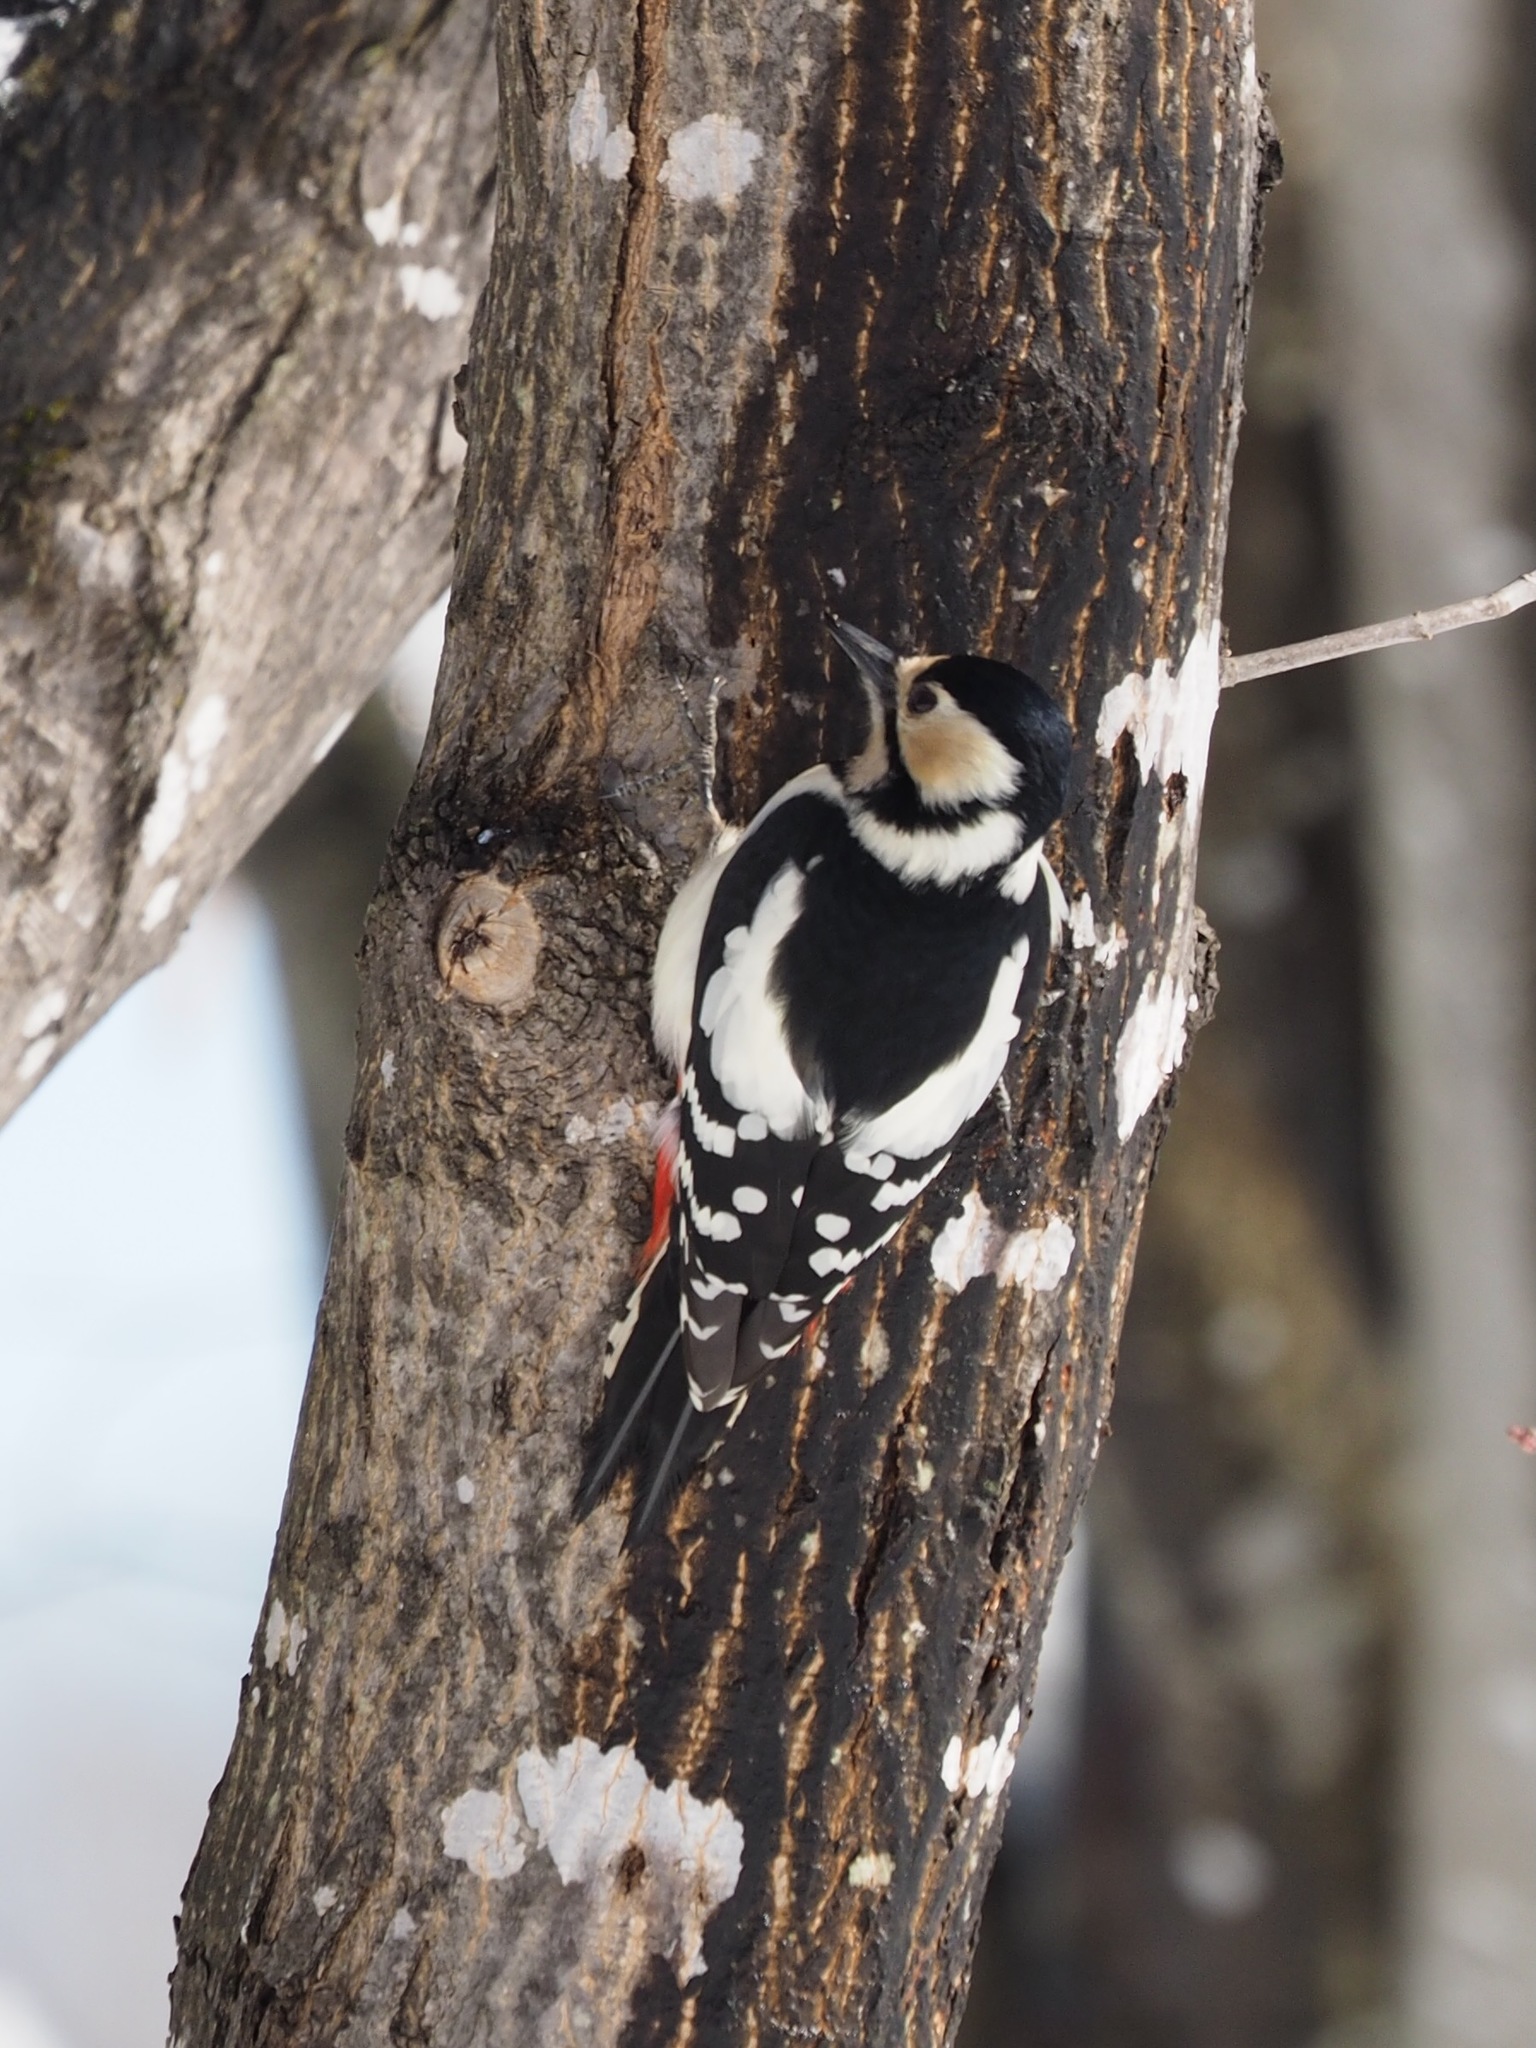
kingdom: Animalia
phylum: Chordata
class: Aves
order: Piciformes
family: Picidae
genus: Dendrocopos
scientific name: Dendrocopos major
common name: Great spotted woodpecker
